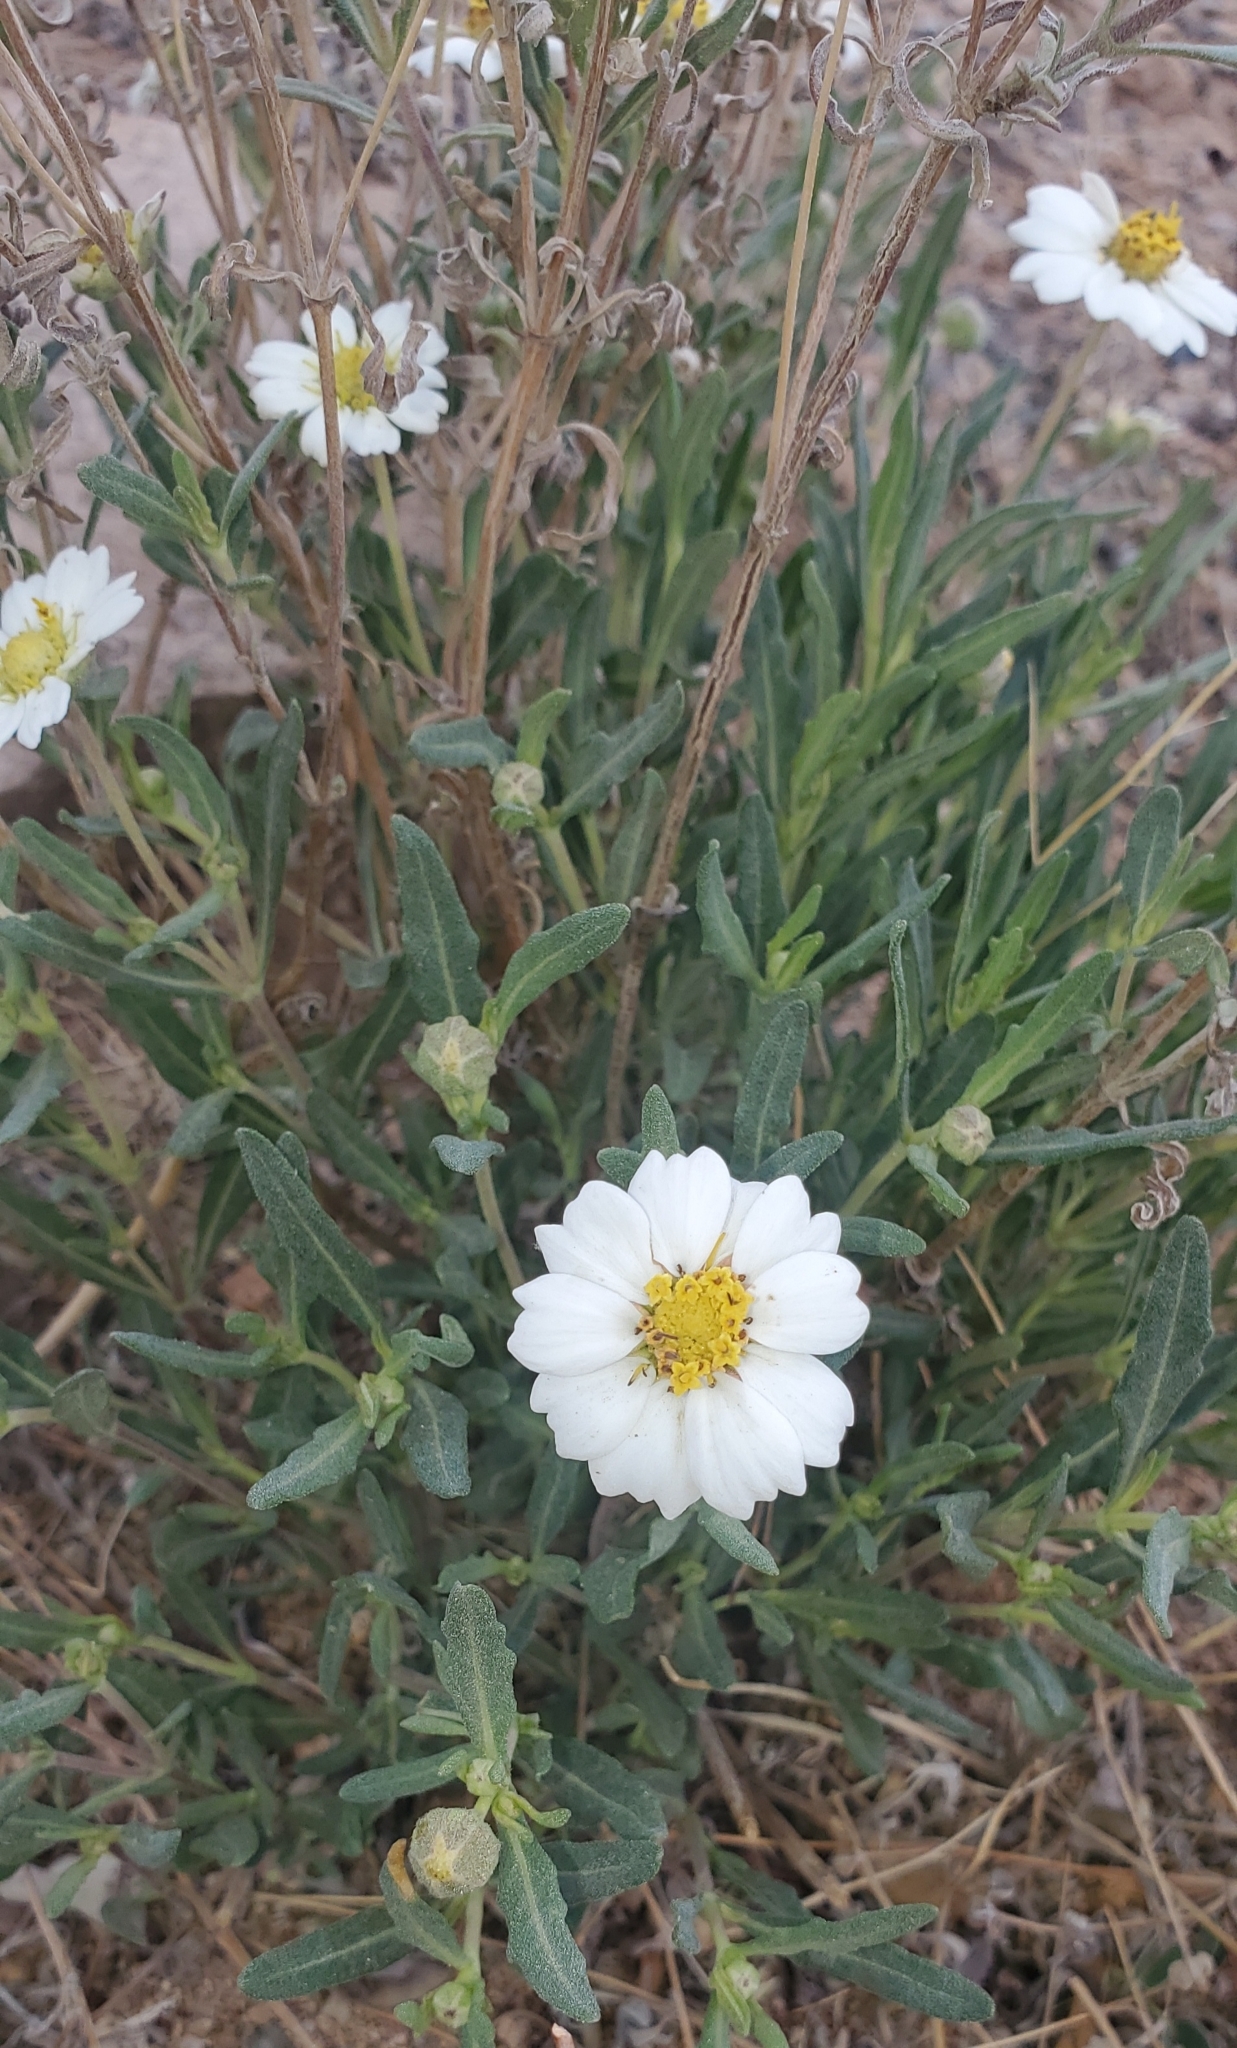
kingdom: Plantae
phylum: Tracheophyta
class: Magnoliopsida
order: Asterales
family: Asteraceae
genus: Melampodium
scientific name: Melampodium leucanthum
